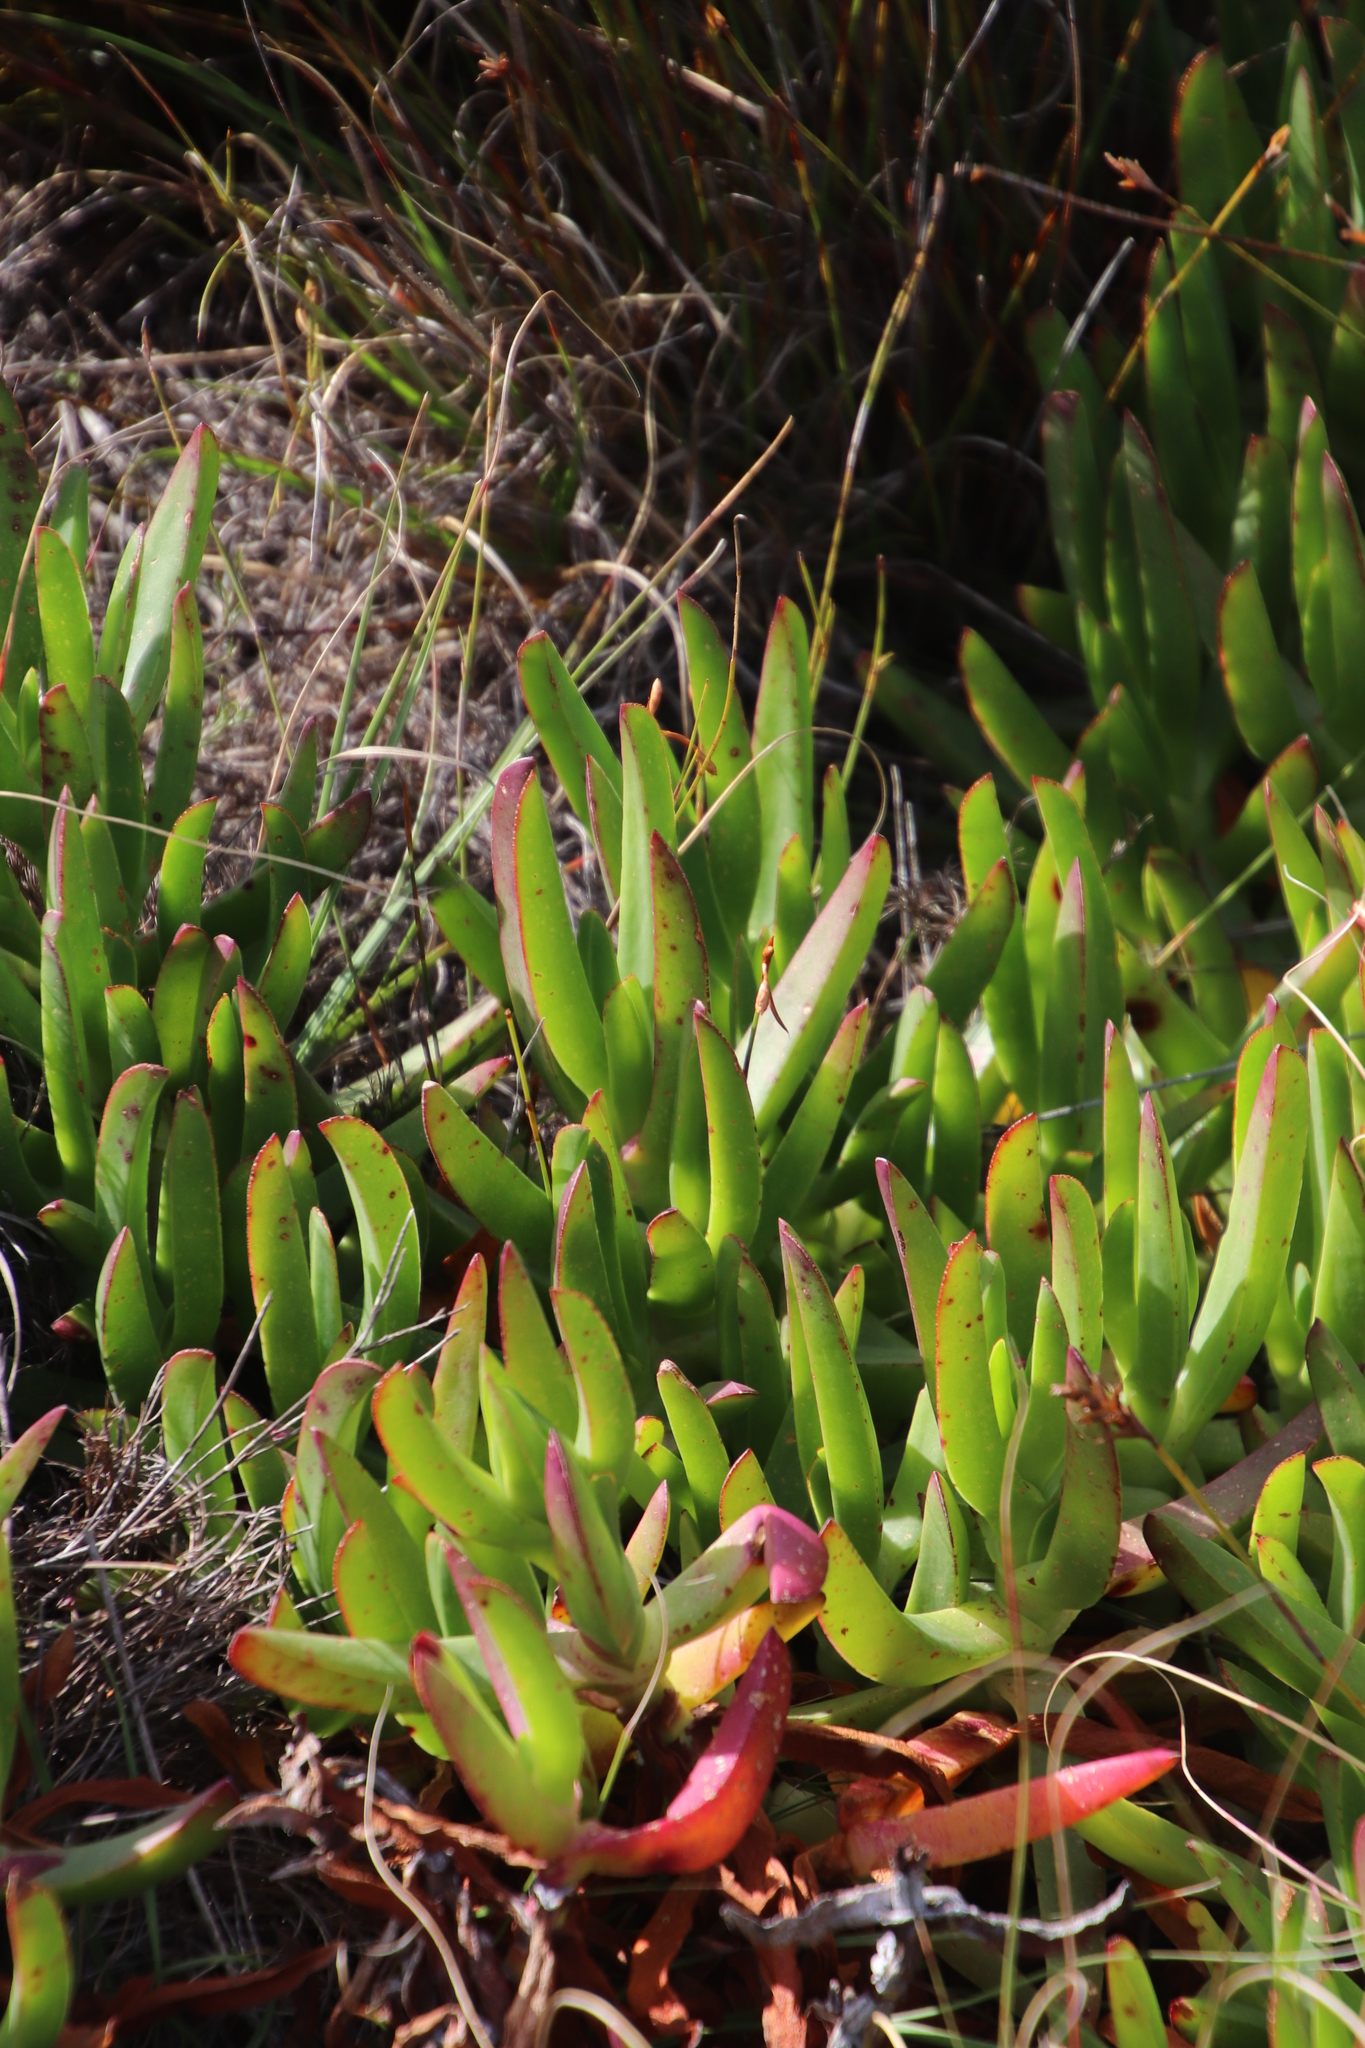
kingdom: Plantae
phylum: Tracheophyta
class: Magnoliopsida
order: Caryophyllales
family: Aizoaceae
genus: Carpobrotus
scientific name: Carpobrotus edulis
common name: Hottentot-fig
